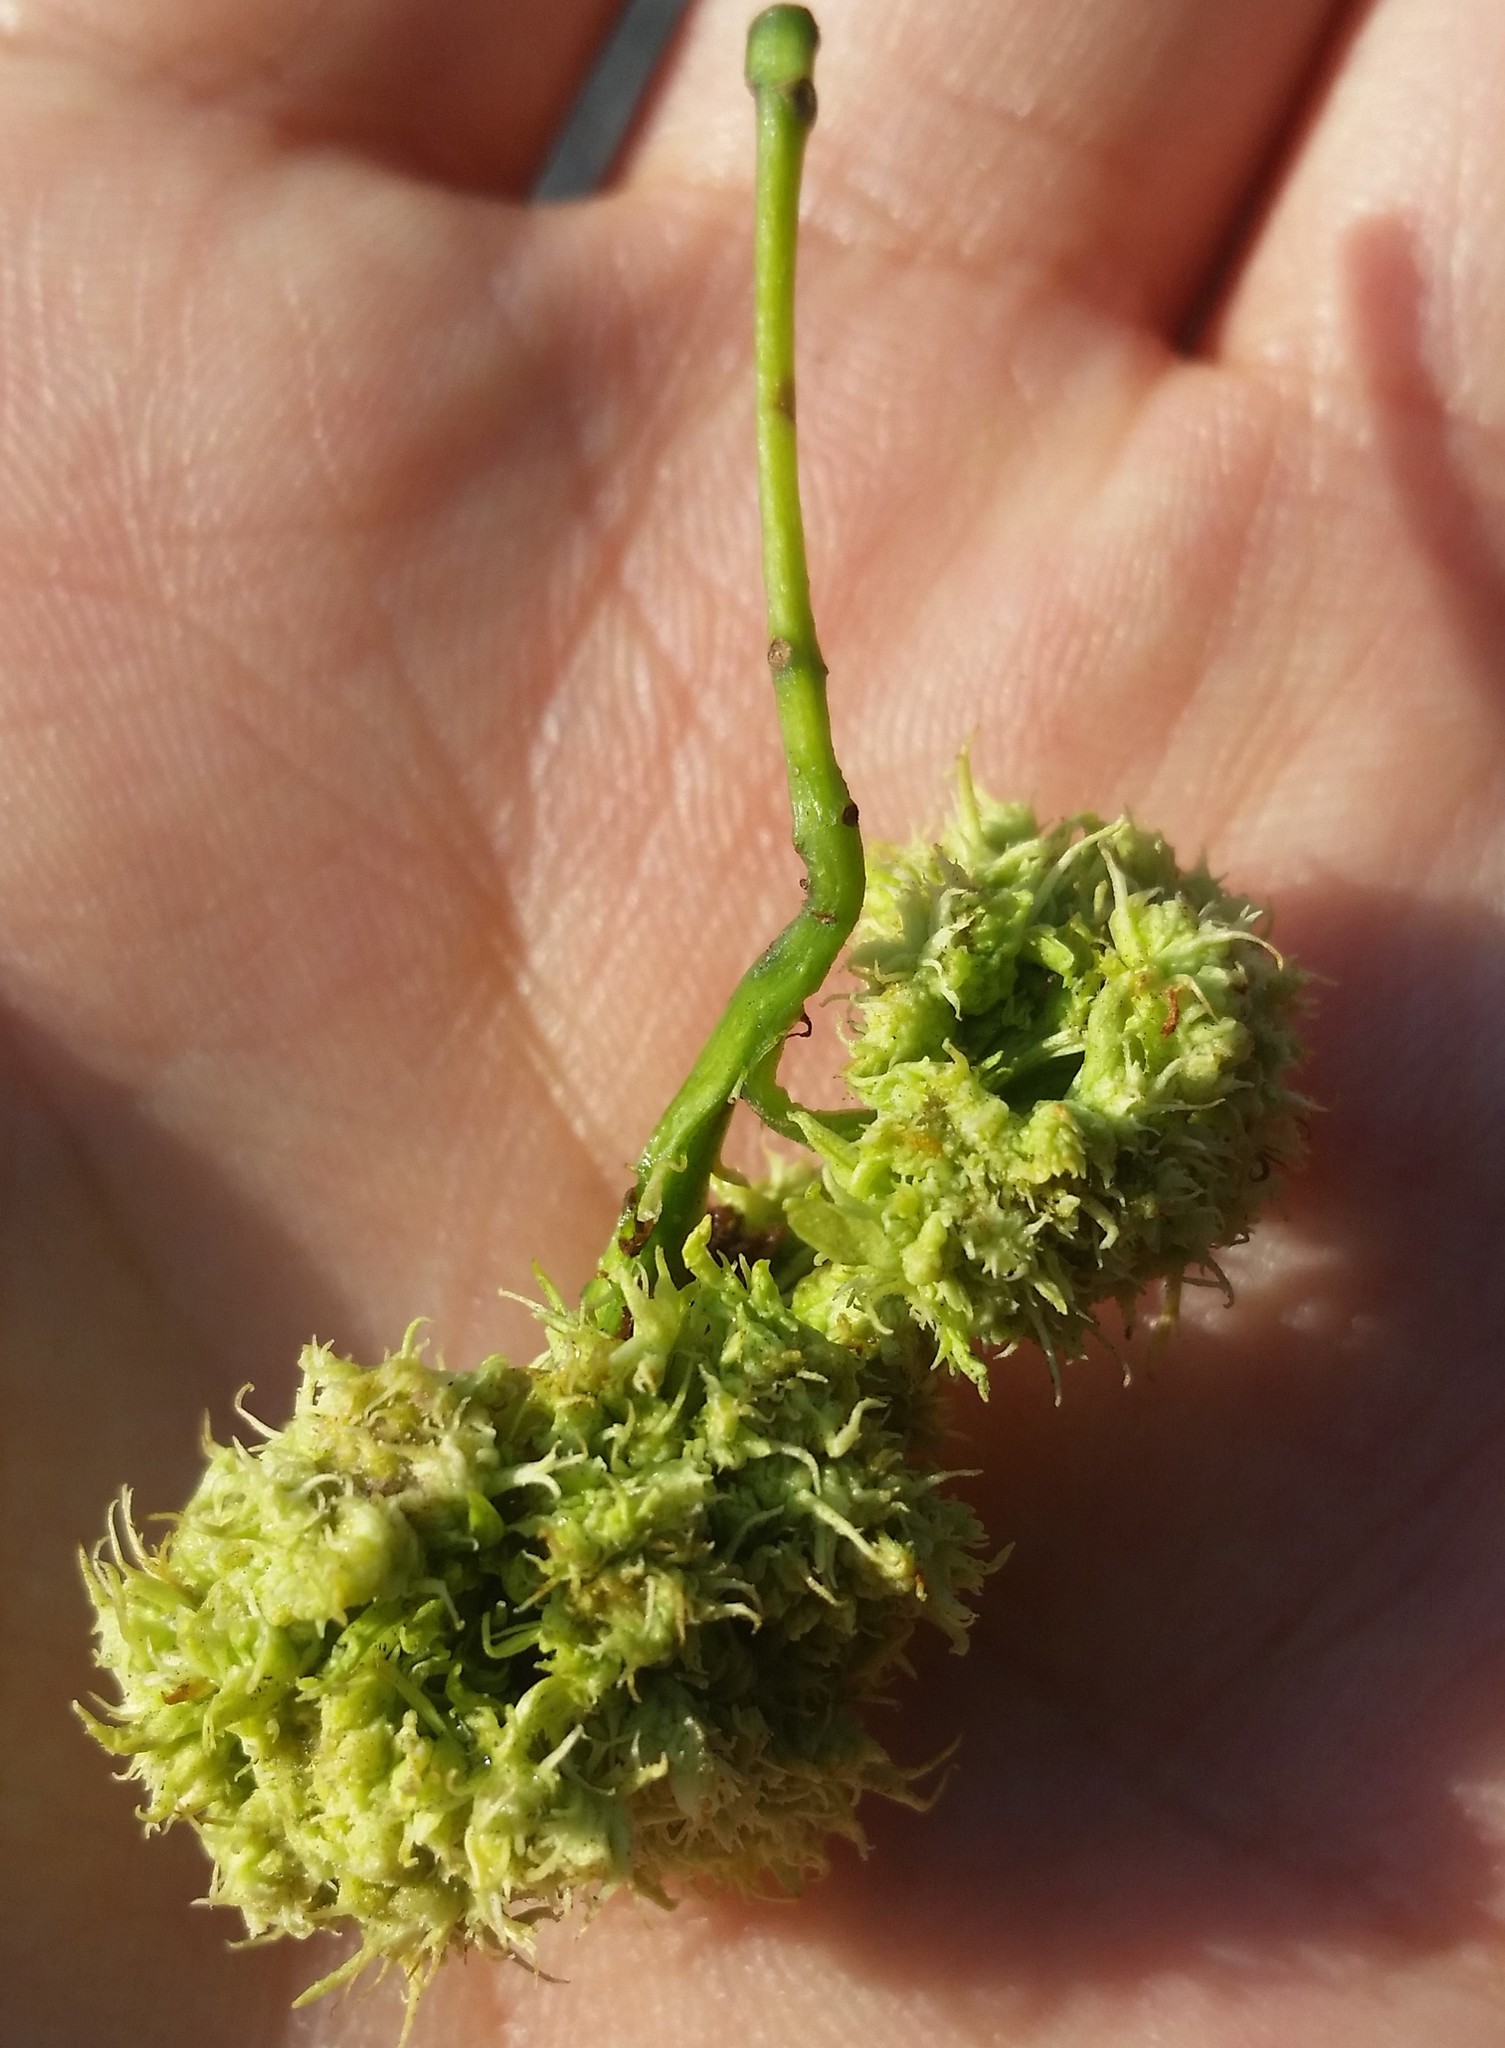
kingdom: Animalia
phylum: Arthropoda
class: Arachnida
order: Trombidiformes
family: Eriophyidae
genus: Aceria
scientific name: Aceria fraxiniflora
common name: Ash flower gall mite
